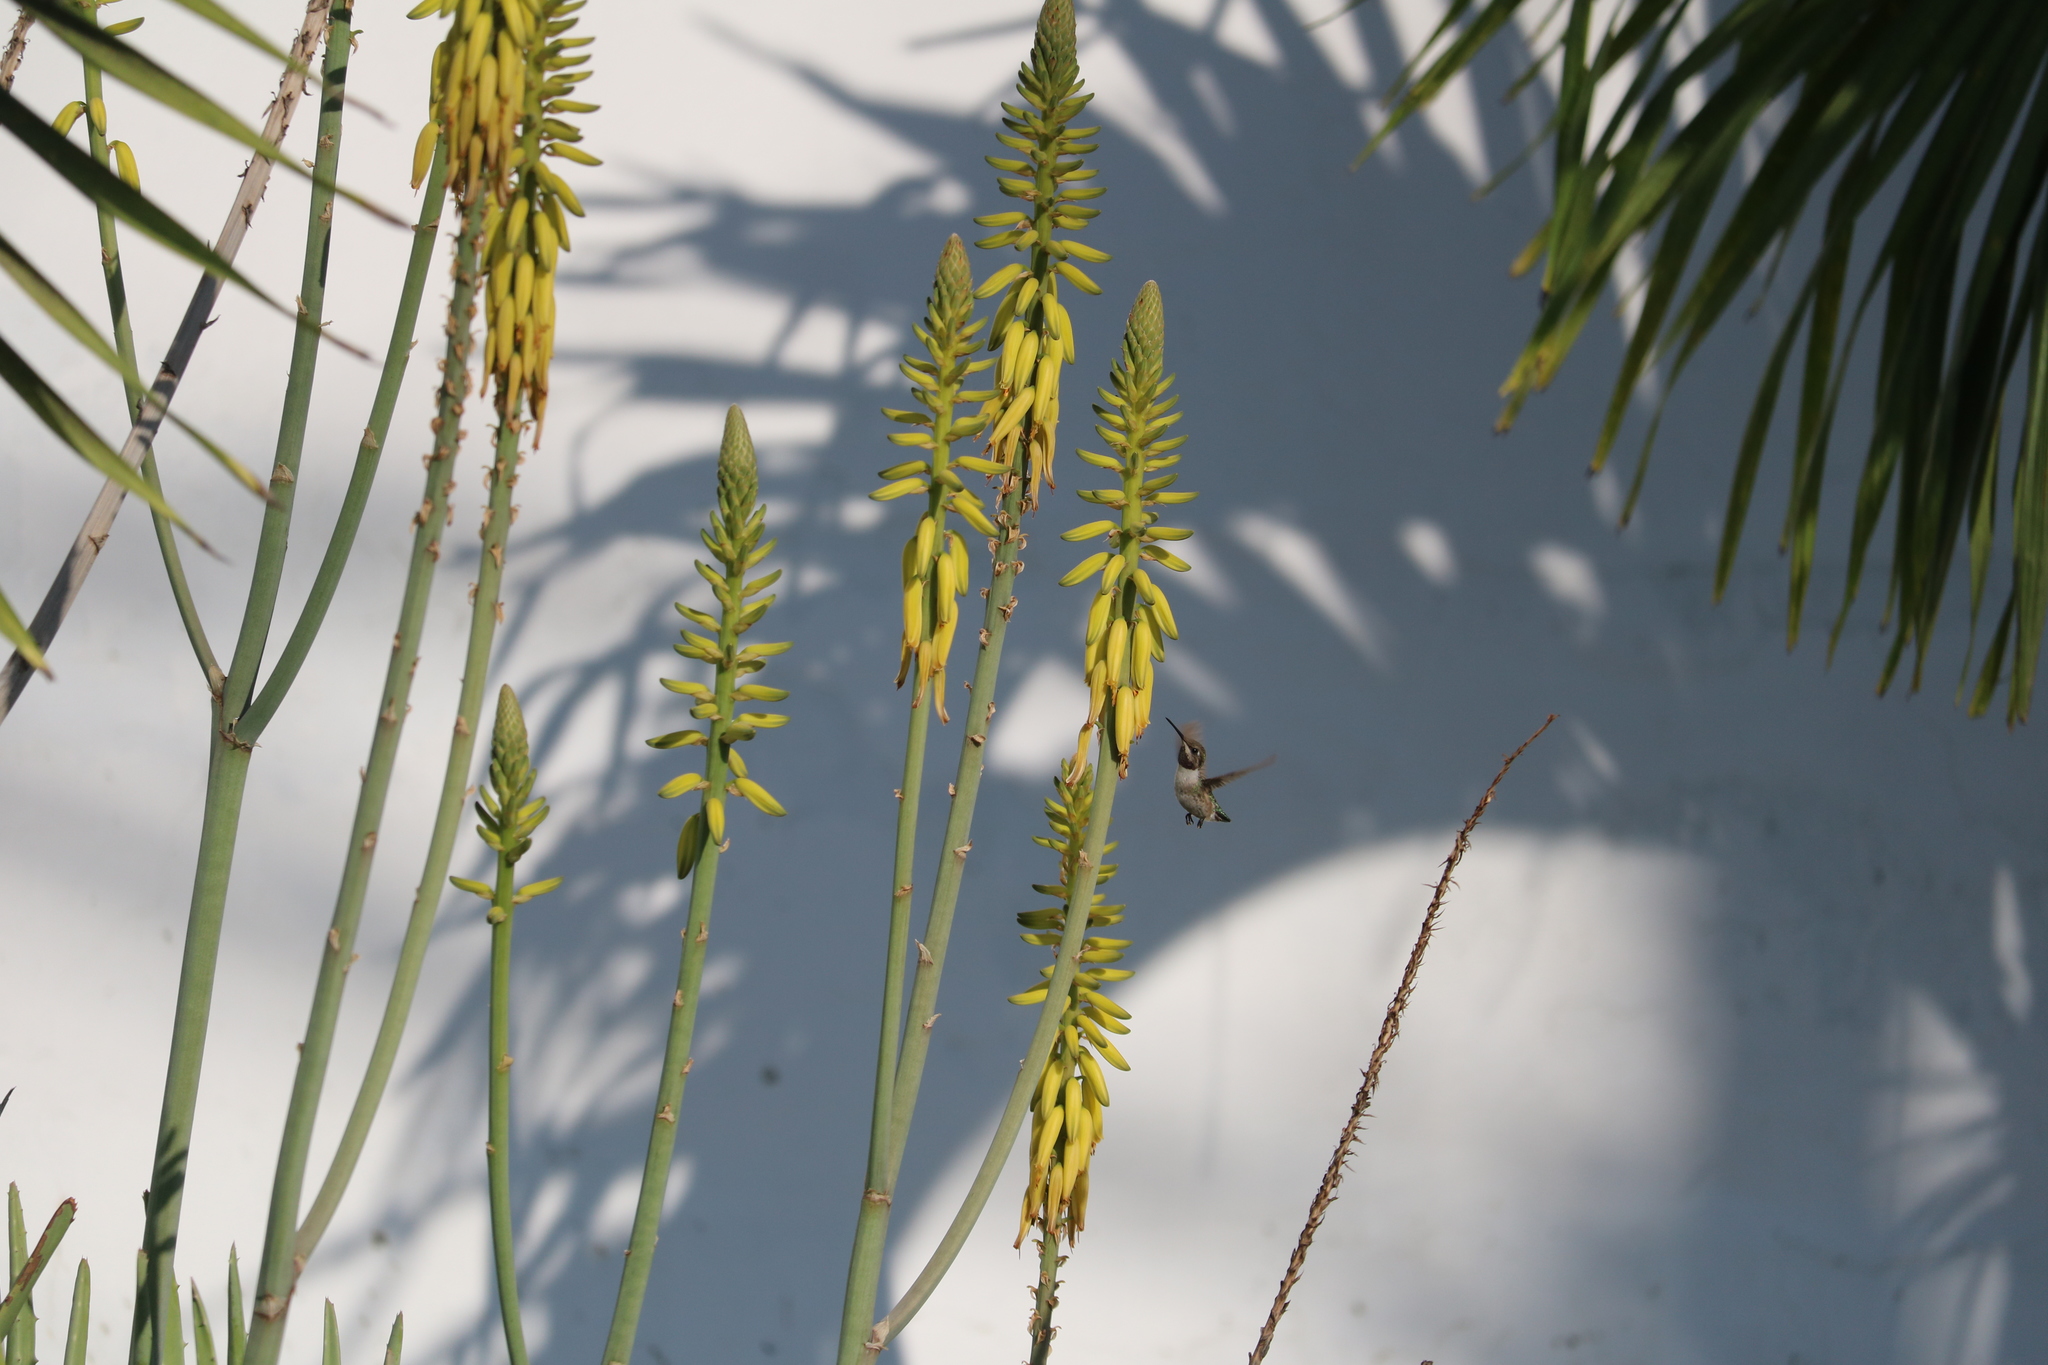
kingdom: Animalia
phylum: Chordata
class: Aves
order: Apodiformes
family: Trochilidae
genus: Myrmia
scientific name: Myrmia micrura
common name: Short-tailed woodstar
